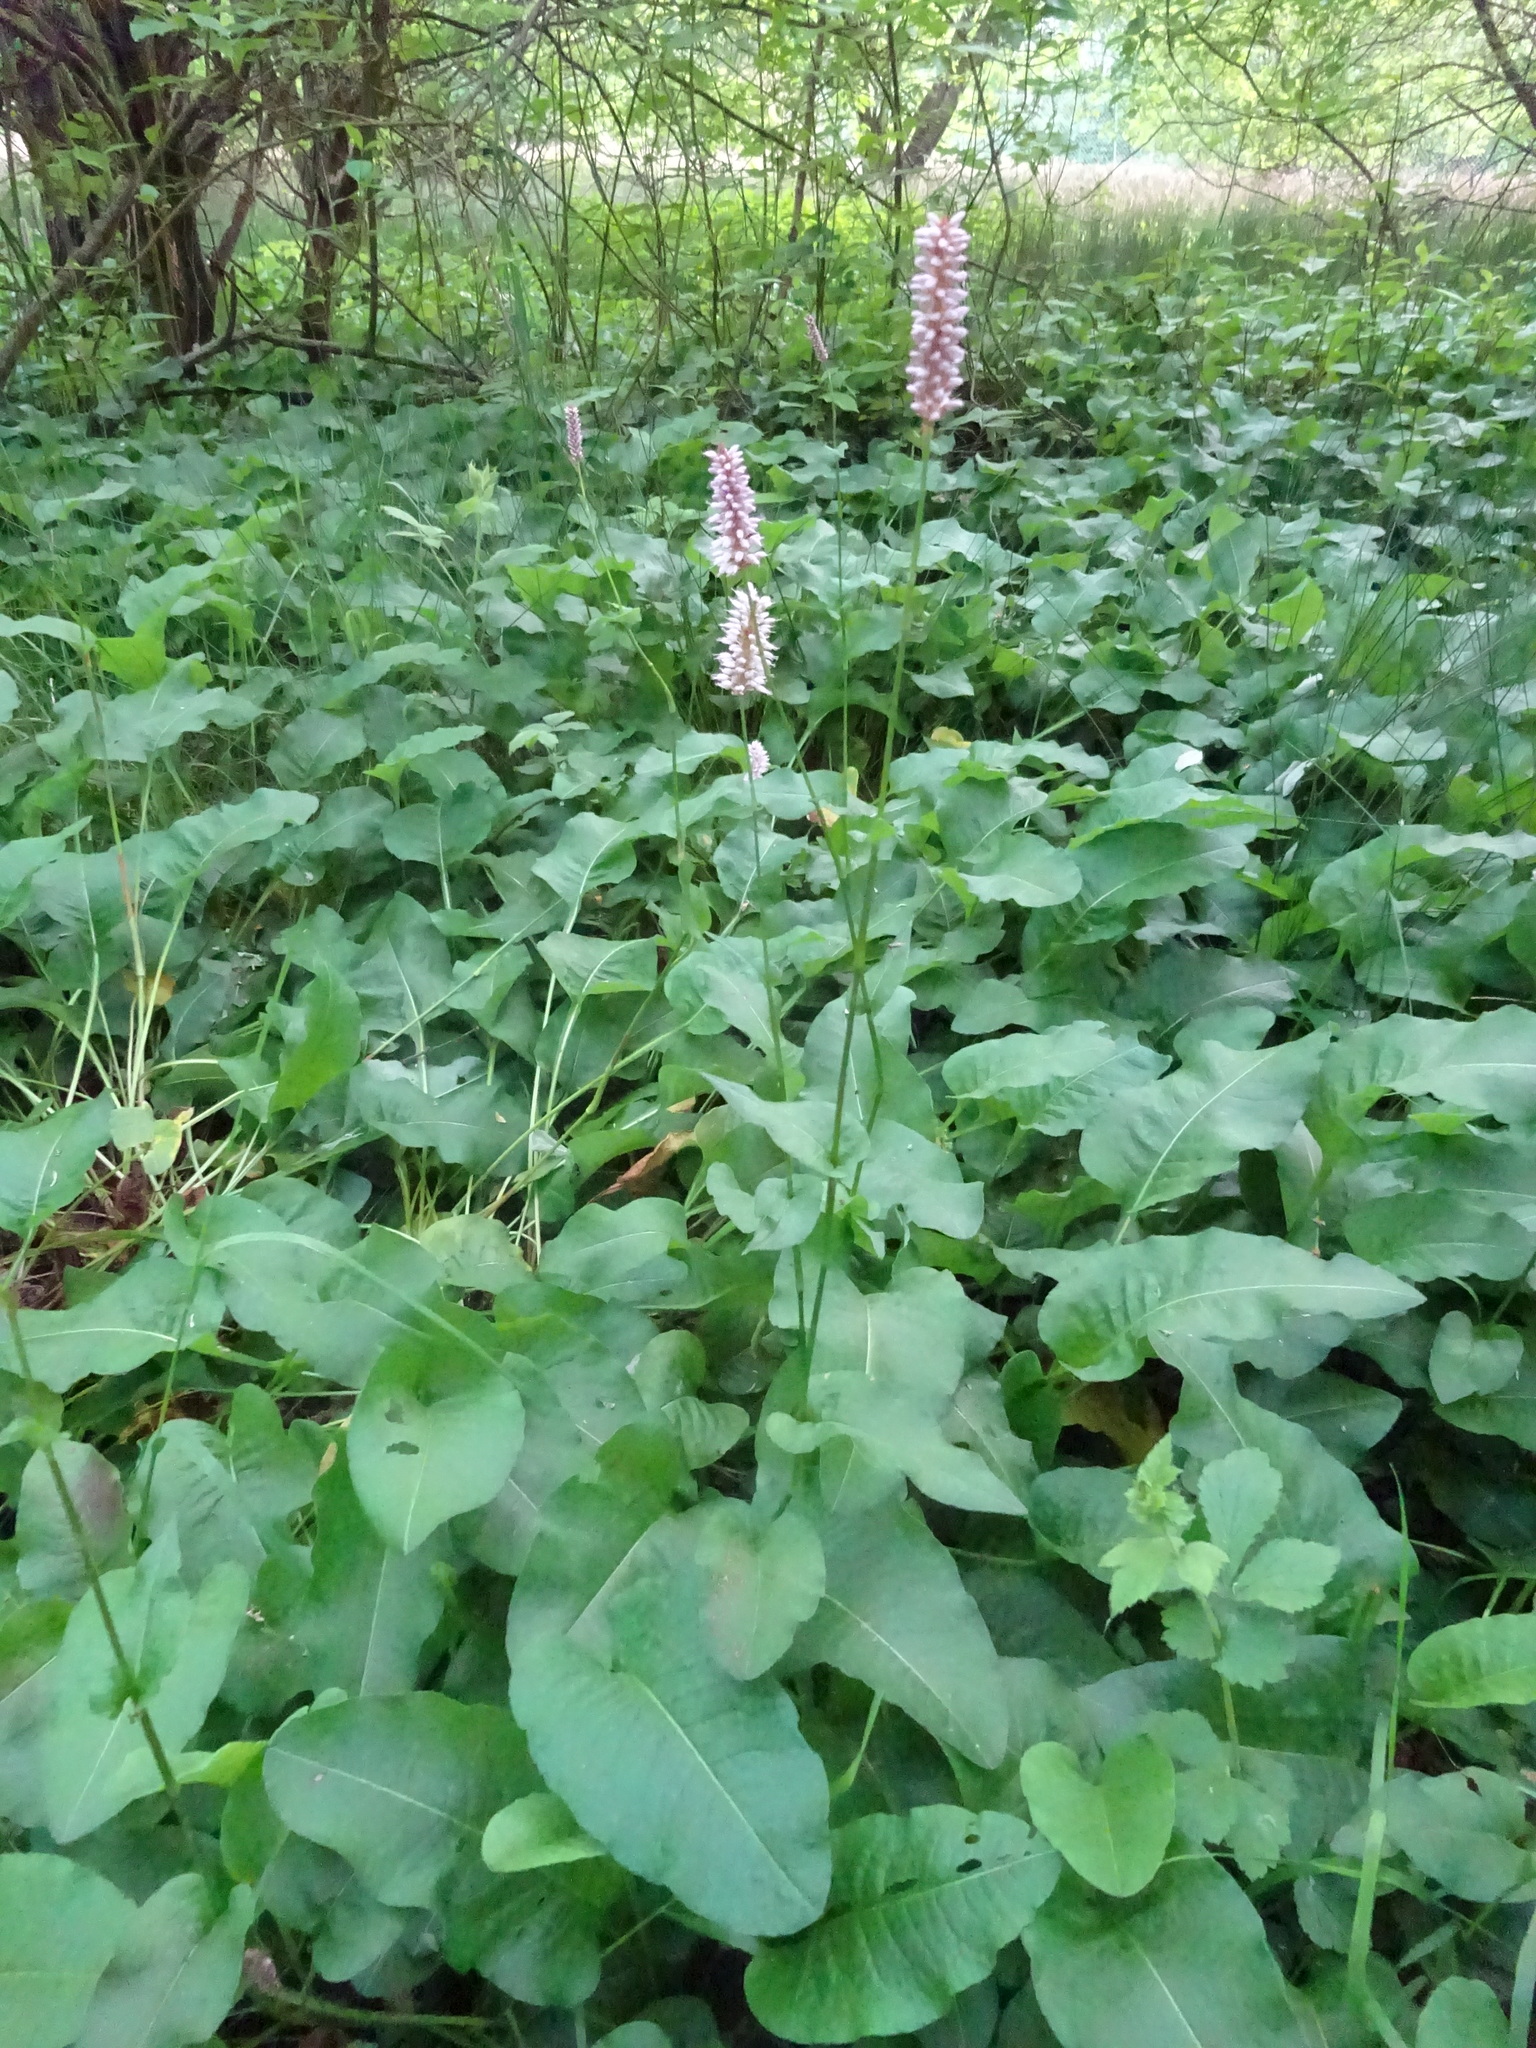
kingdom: Plantae
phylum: Tracheophyta
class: Magnoliopsida
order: Caryophyllales
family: Polygonaceae
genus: Bistorta
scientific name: Bistorta officinalis
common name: Common bistort
